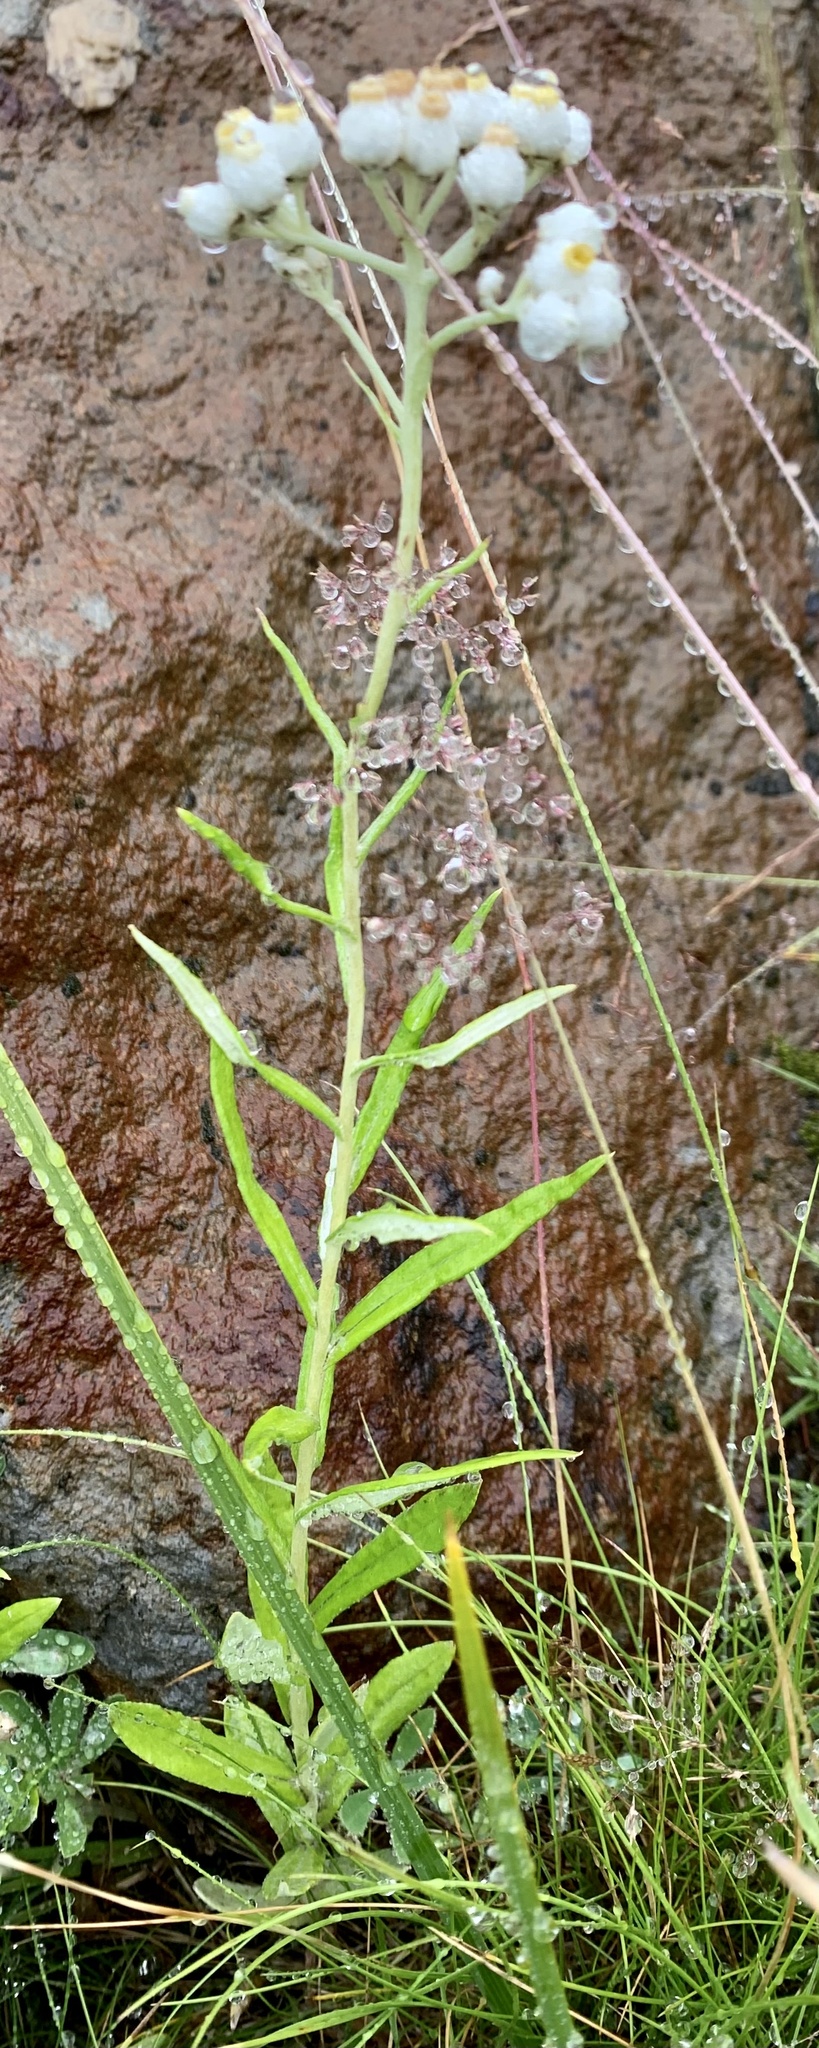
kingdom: Plantae
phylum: Tracheophyta
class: Magnoliopsida
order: Asterales
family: Asteraceae
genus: Anaphalis
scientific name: Anaphalis margaritacea
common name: Pearly everlasting
